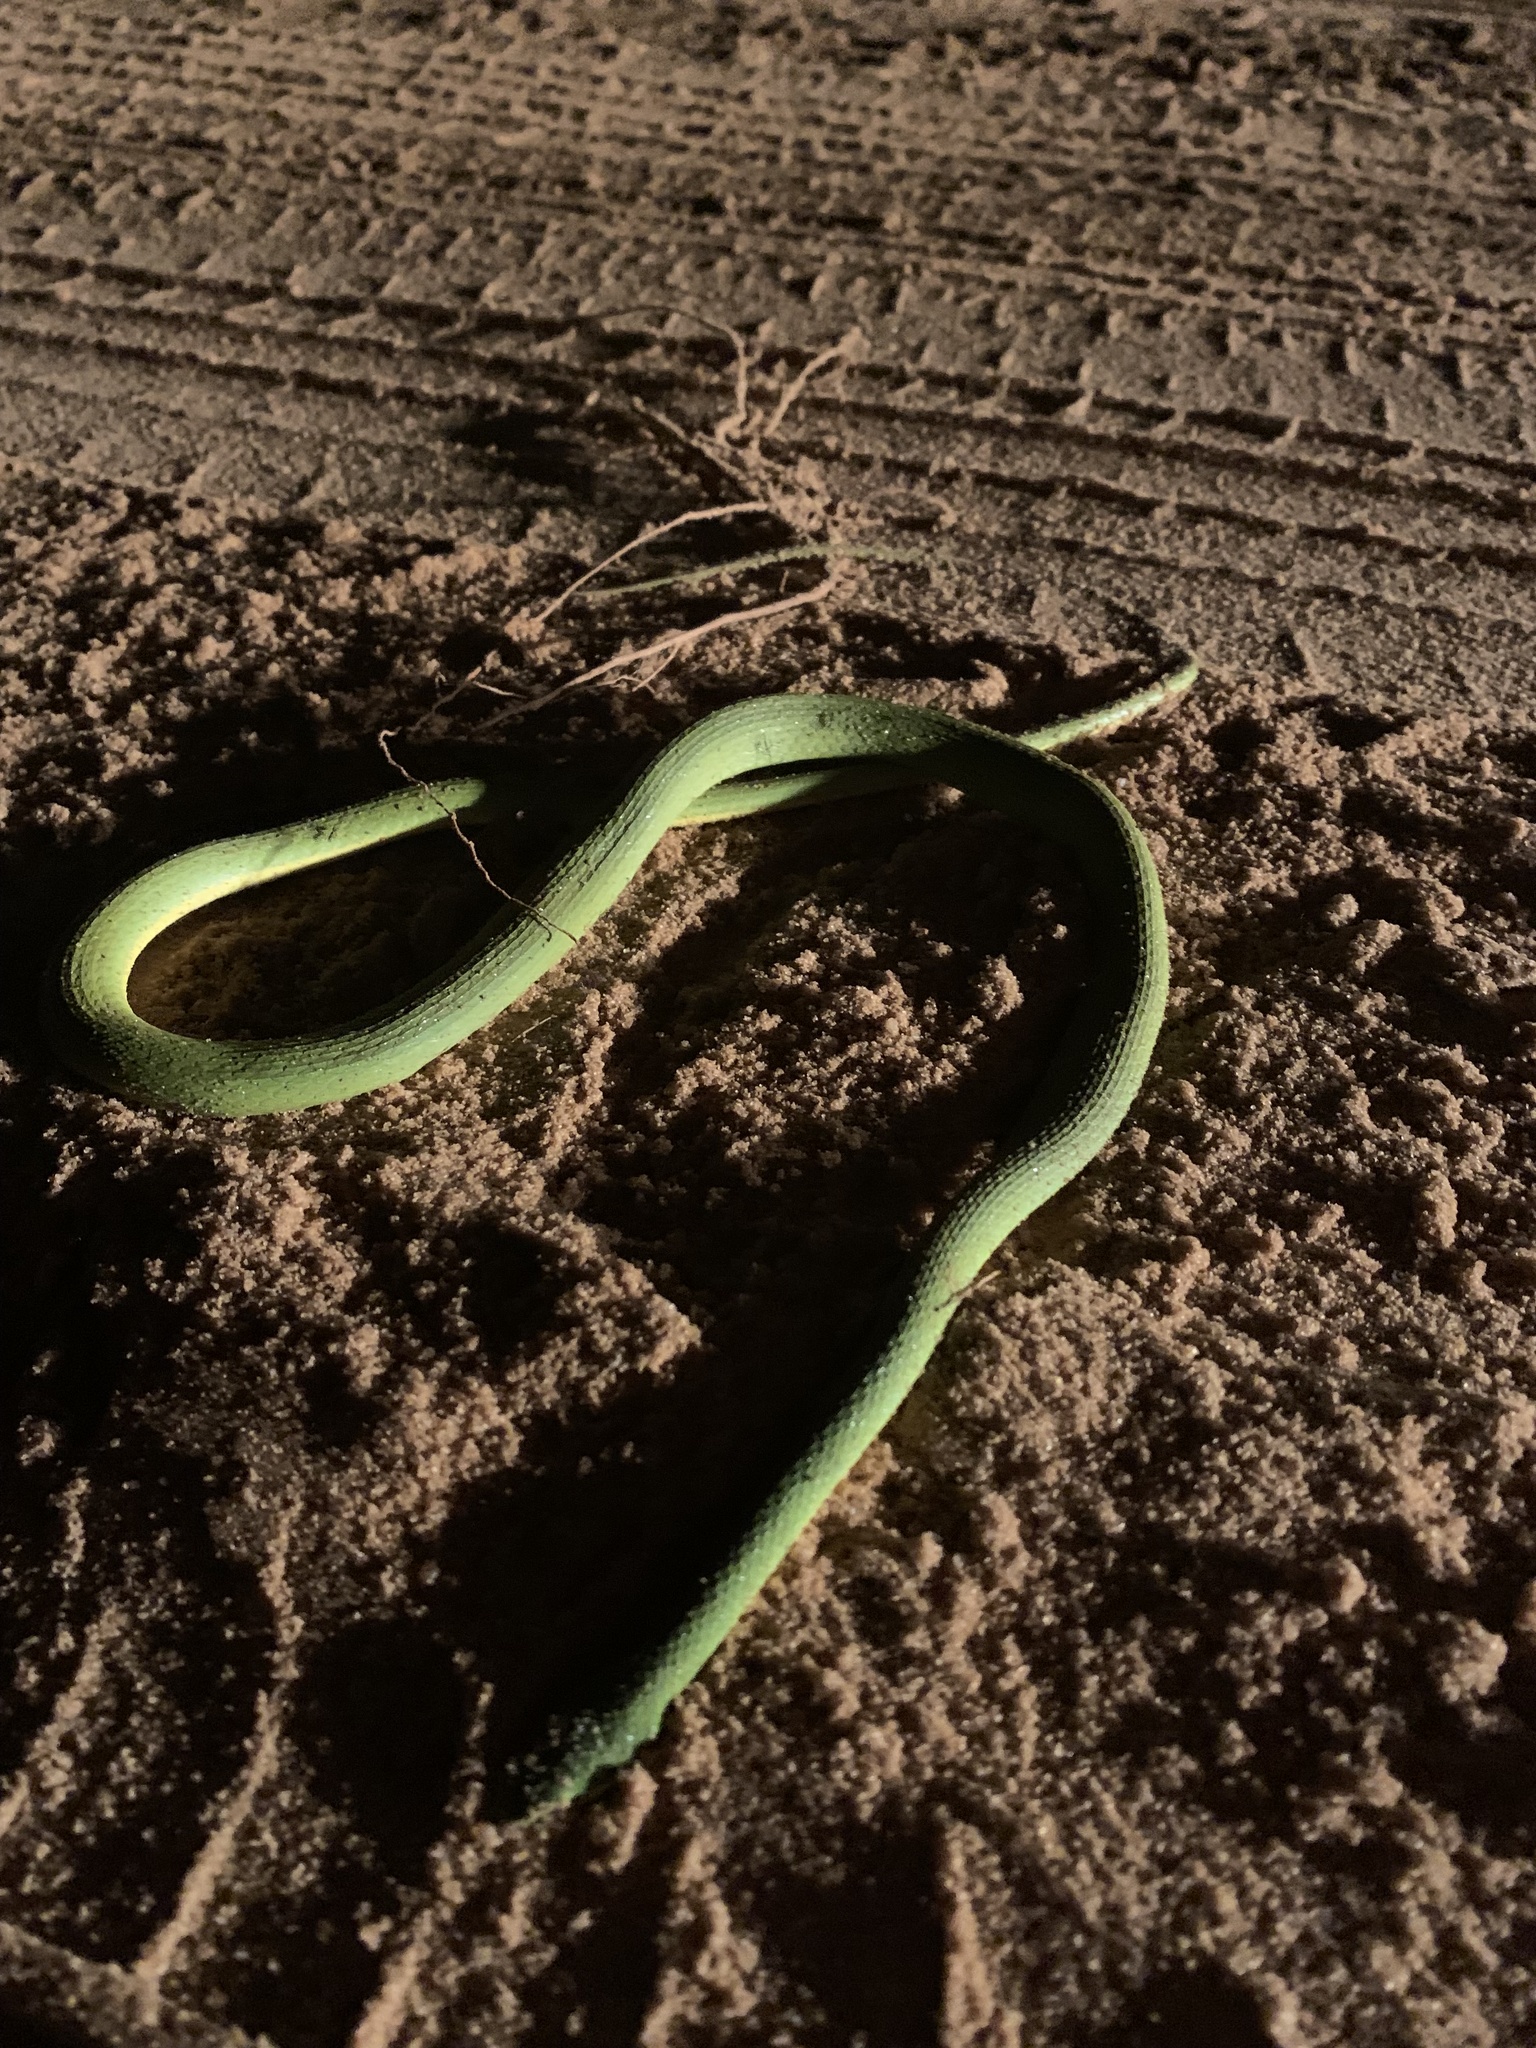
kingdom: Animalia
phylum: Chordata
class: Squamata
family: Colubridae
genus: Opheodrys
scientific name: Opheodrys aestivus
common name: Rough greensnake
